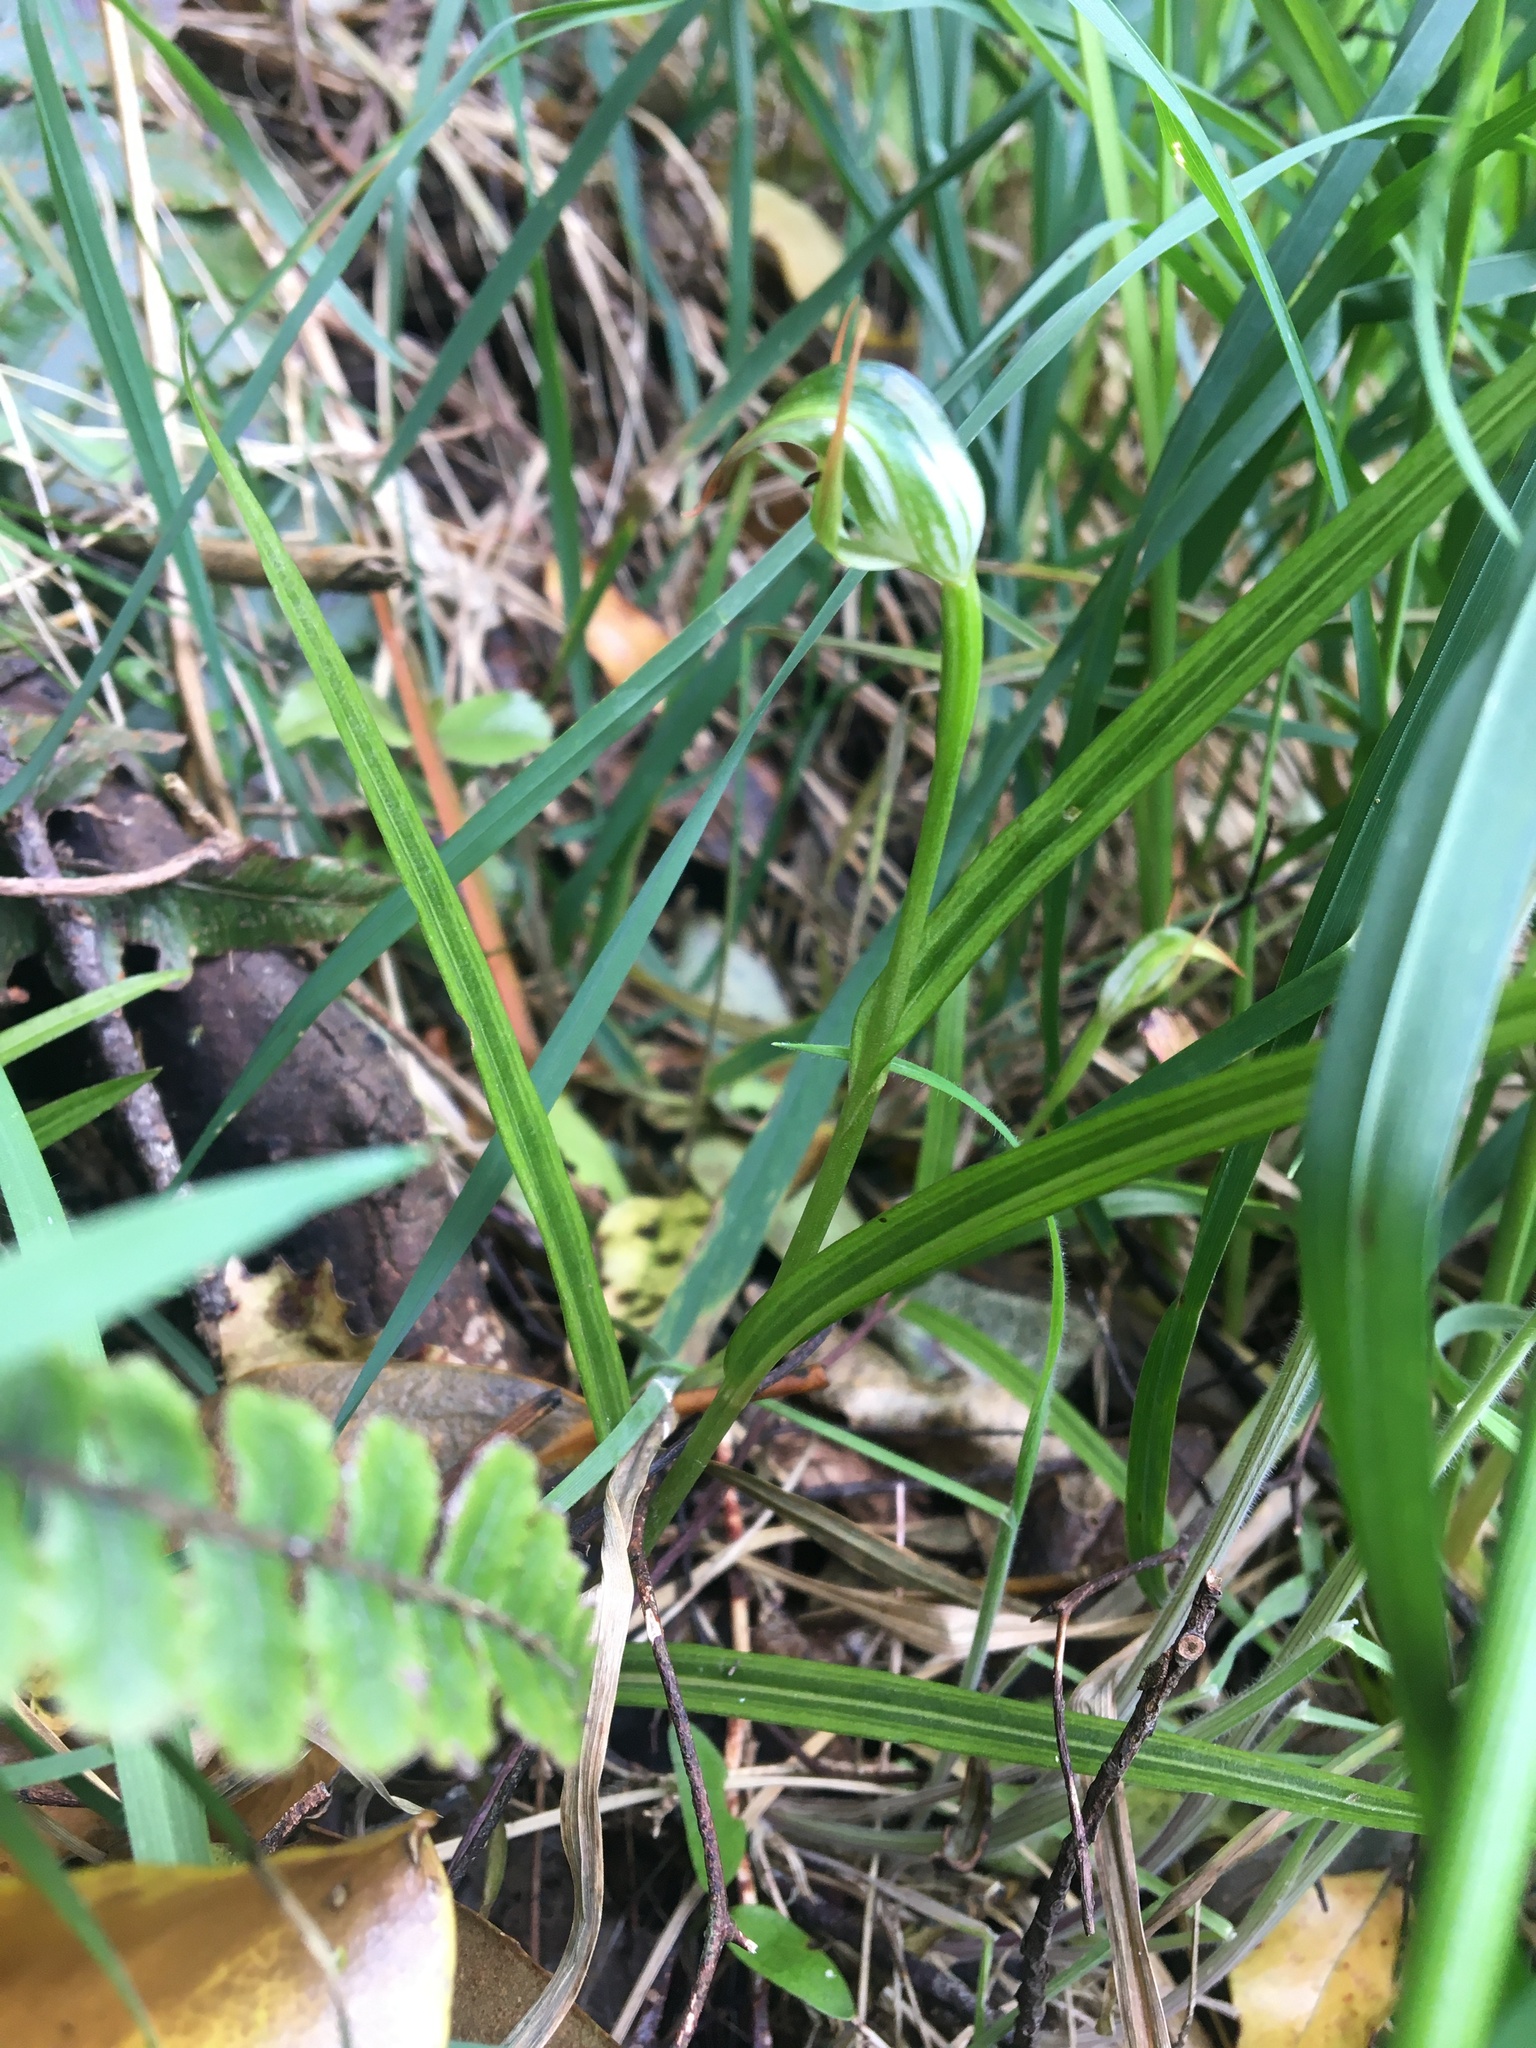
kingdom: Plantae
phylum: Tracheophyta
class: Liliopsida
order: Asparagales
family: Orchidaceae
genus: Pterostylis
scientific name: Pterostylis graminea
